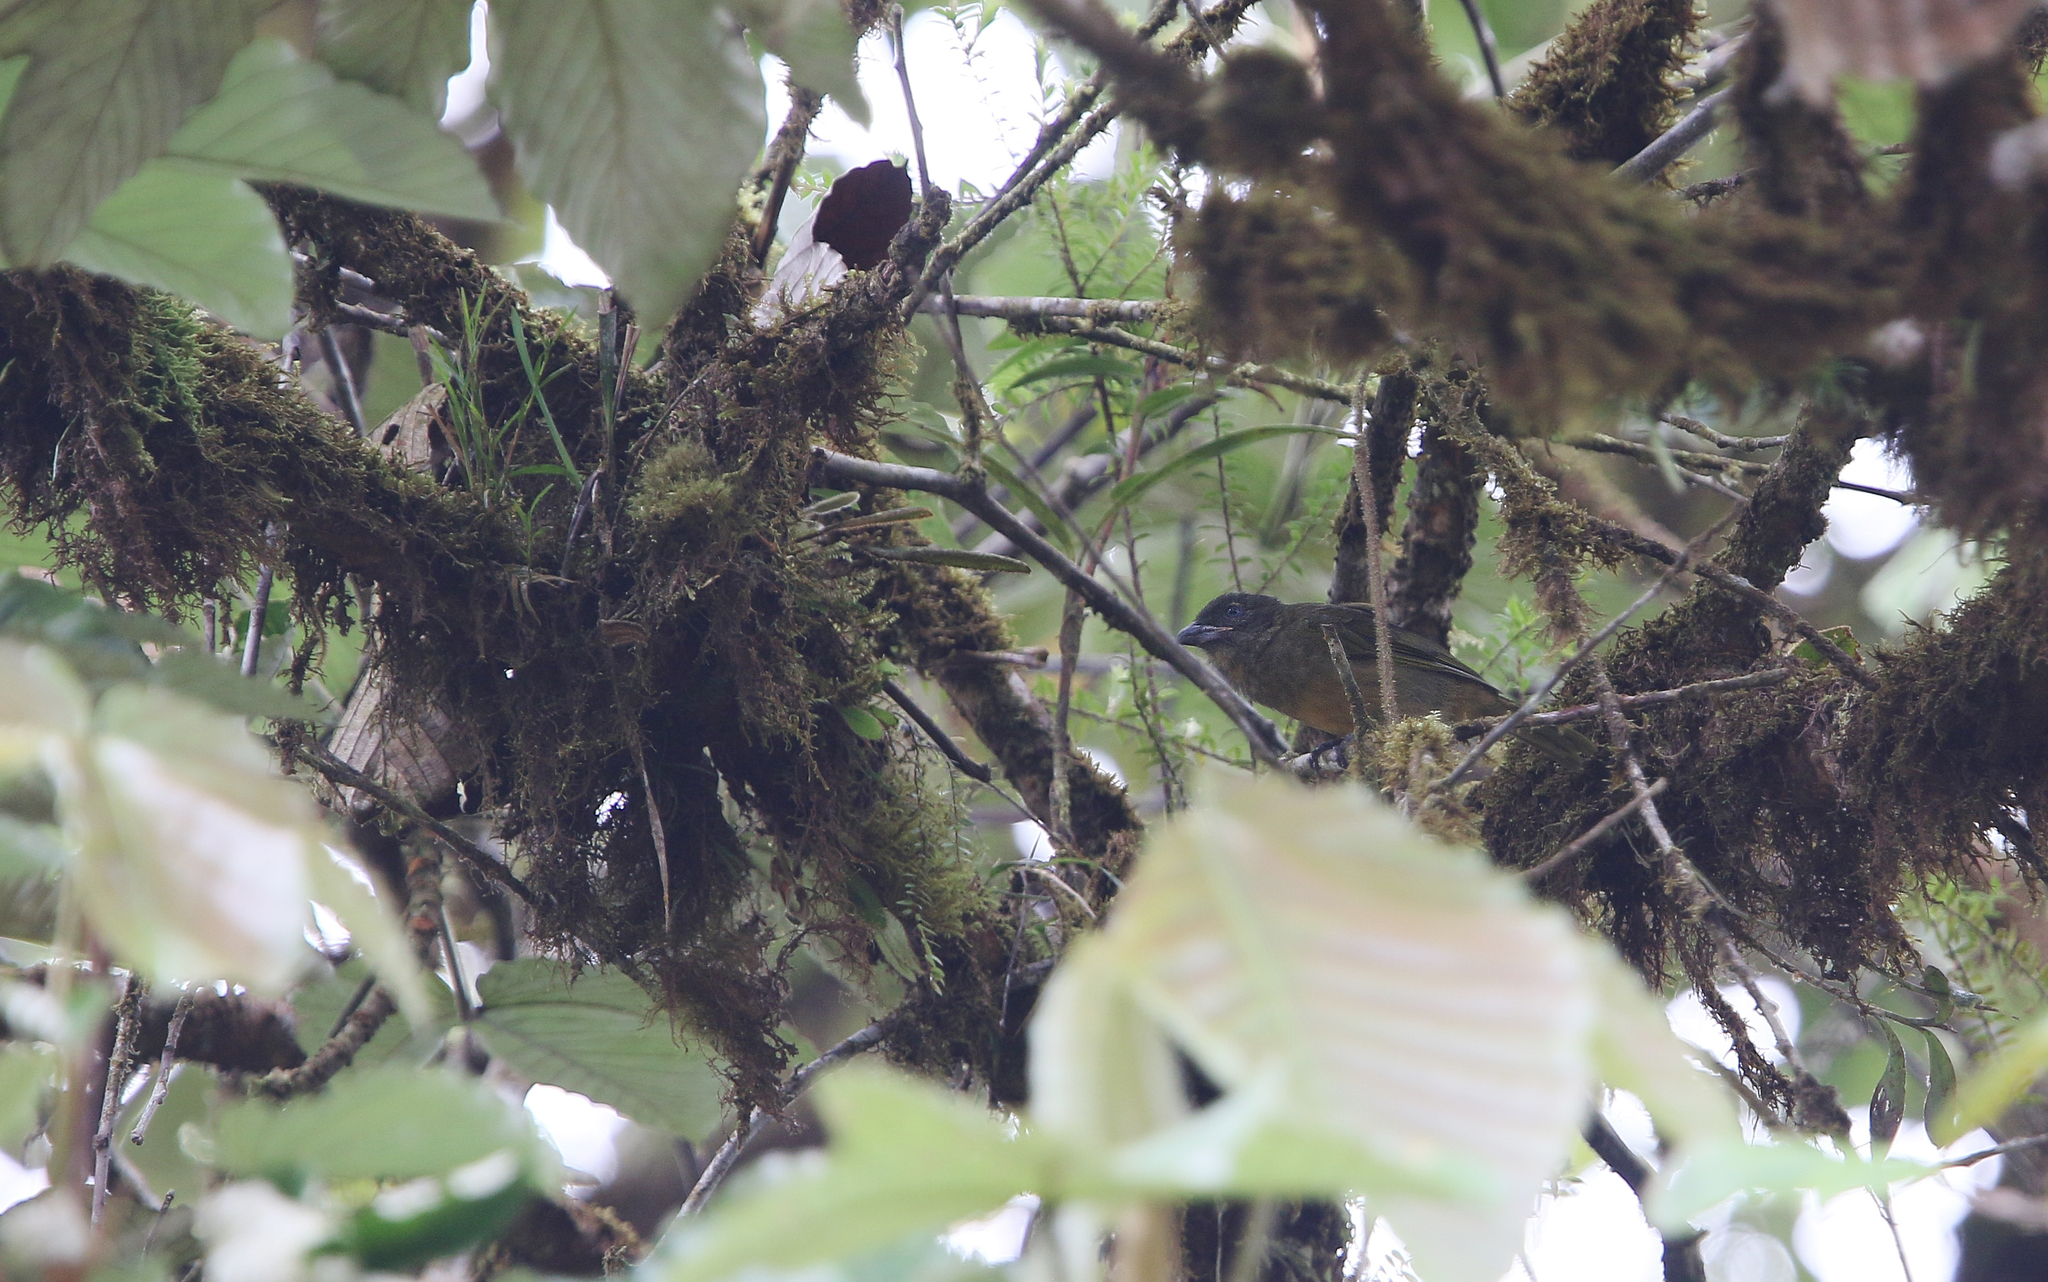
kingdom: Animalia
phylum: Chordata
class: Aves
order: Passeriformes
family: Cardinalidae
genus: Chlorothraupis
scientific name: Chlorothraupis stolzmanni
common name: Ochre-breasted tanager
